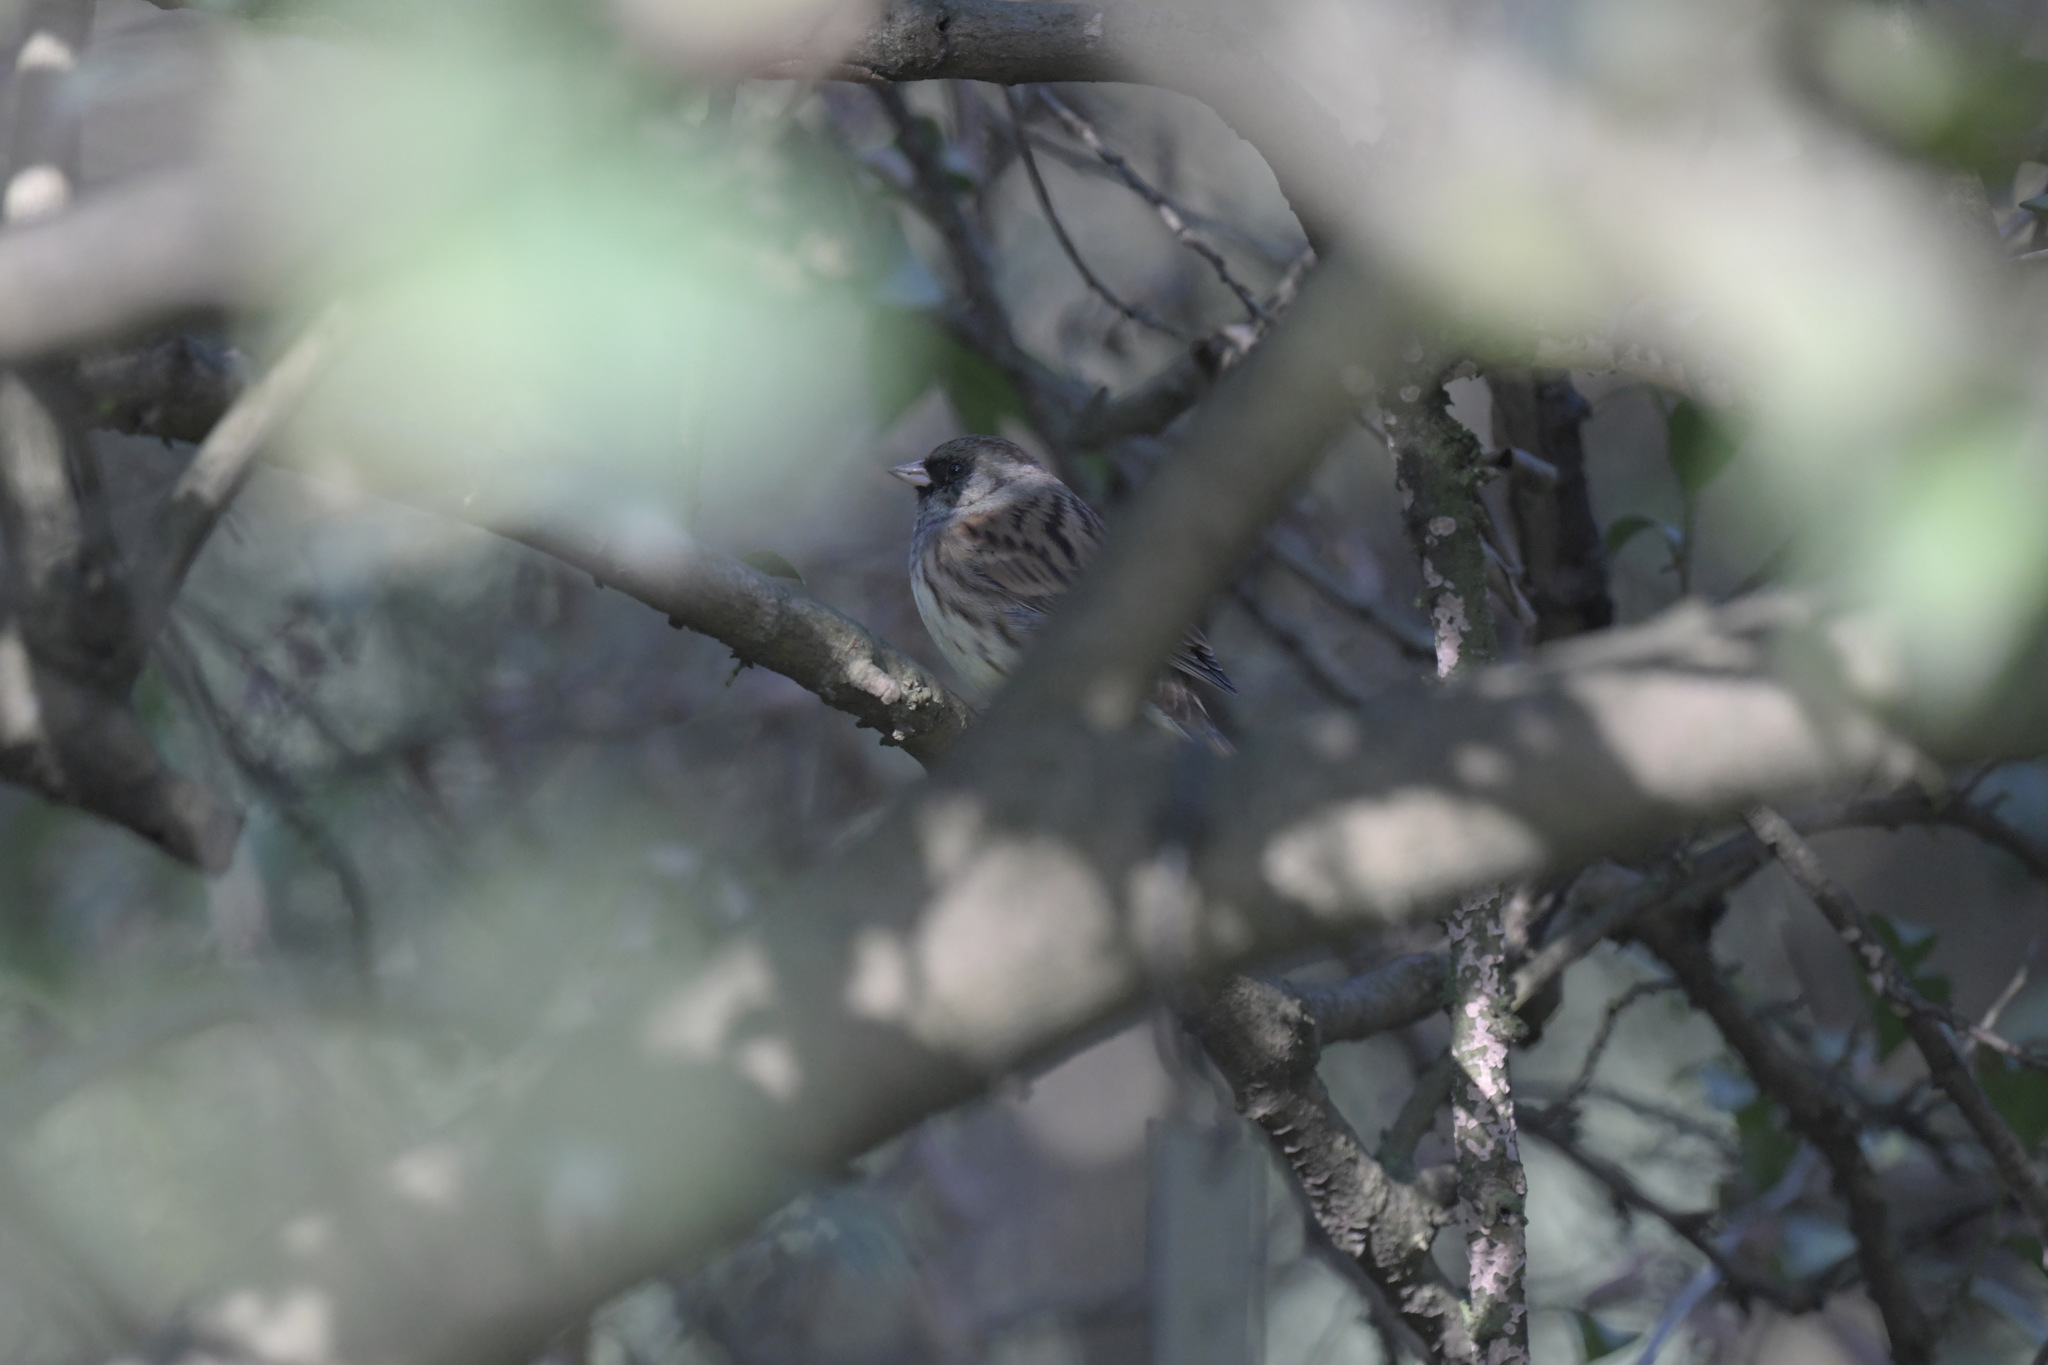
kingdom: Animalia
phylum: Chordata
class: Aves
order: Passeriformes
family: Emberizidae
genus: Emberiza
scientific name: Emberiza spodocephala
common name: Black-faced bunting
